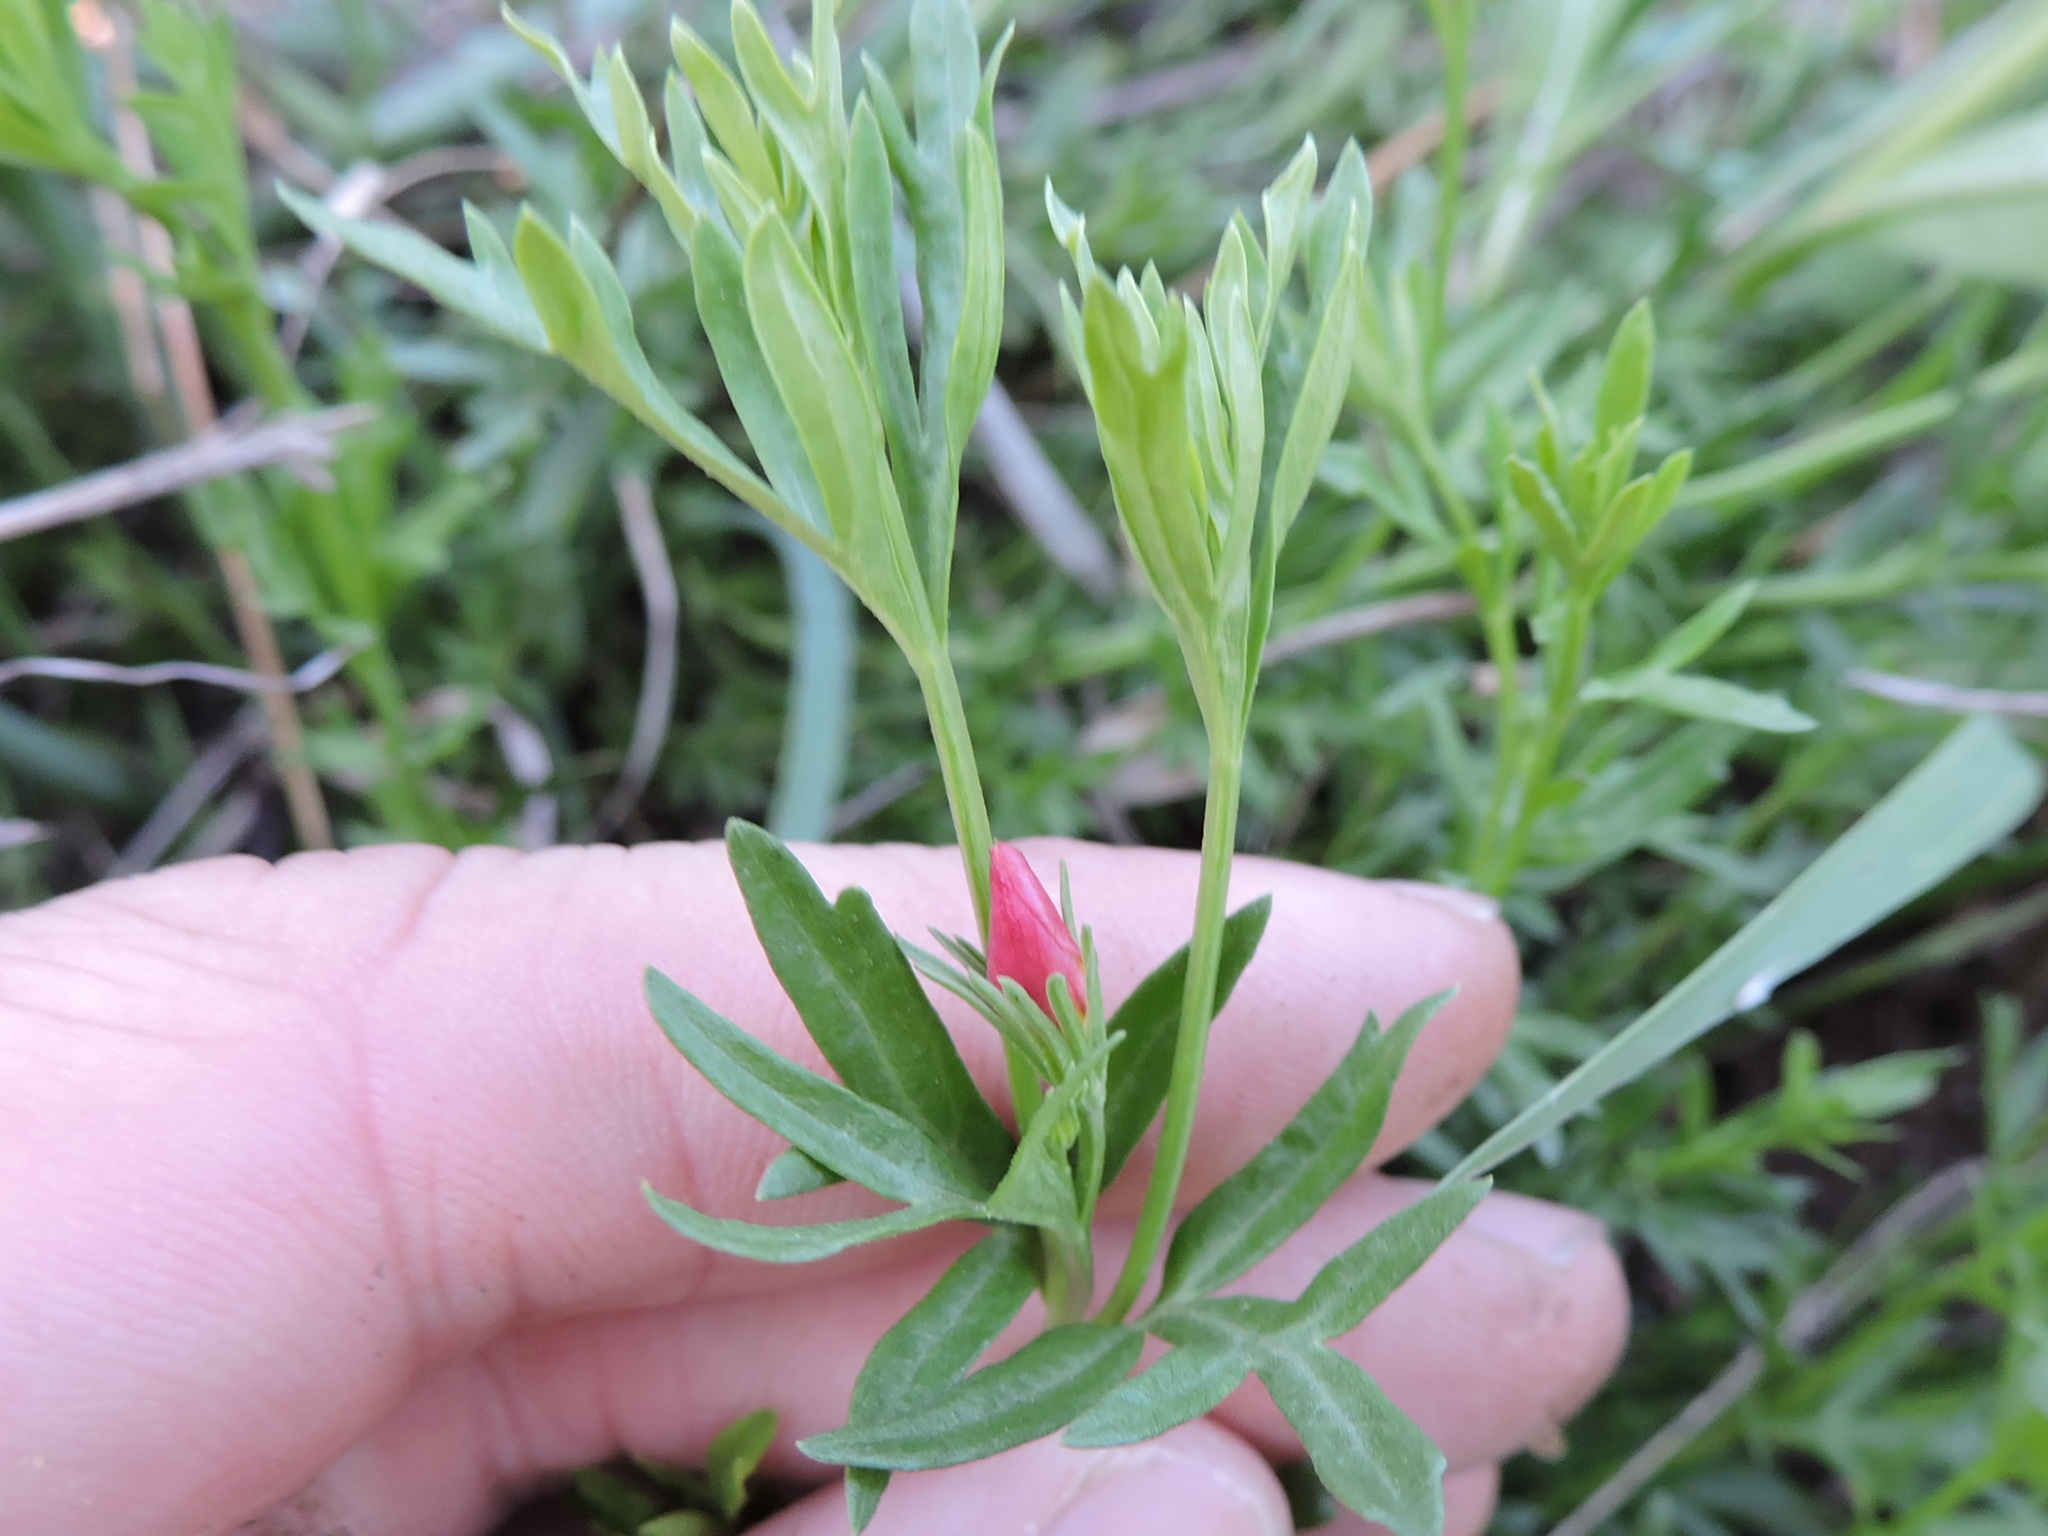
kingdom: Plantae
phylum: Tracheophyta
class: Magnoliopsida
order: Lamiales
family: Oleaceae
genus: Menodora
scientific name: Menodora heterophylla
